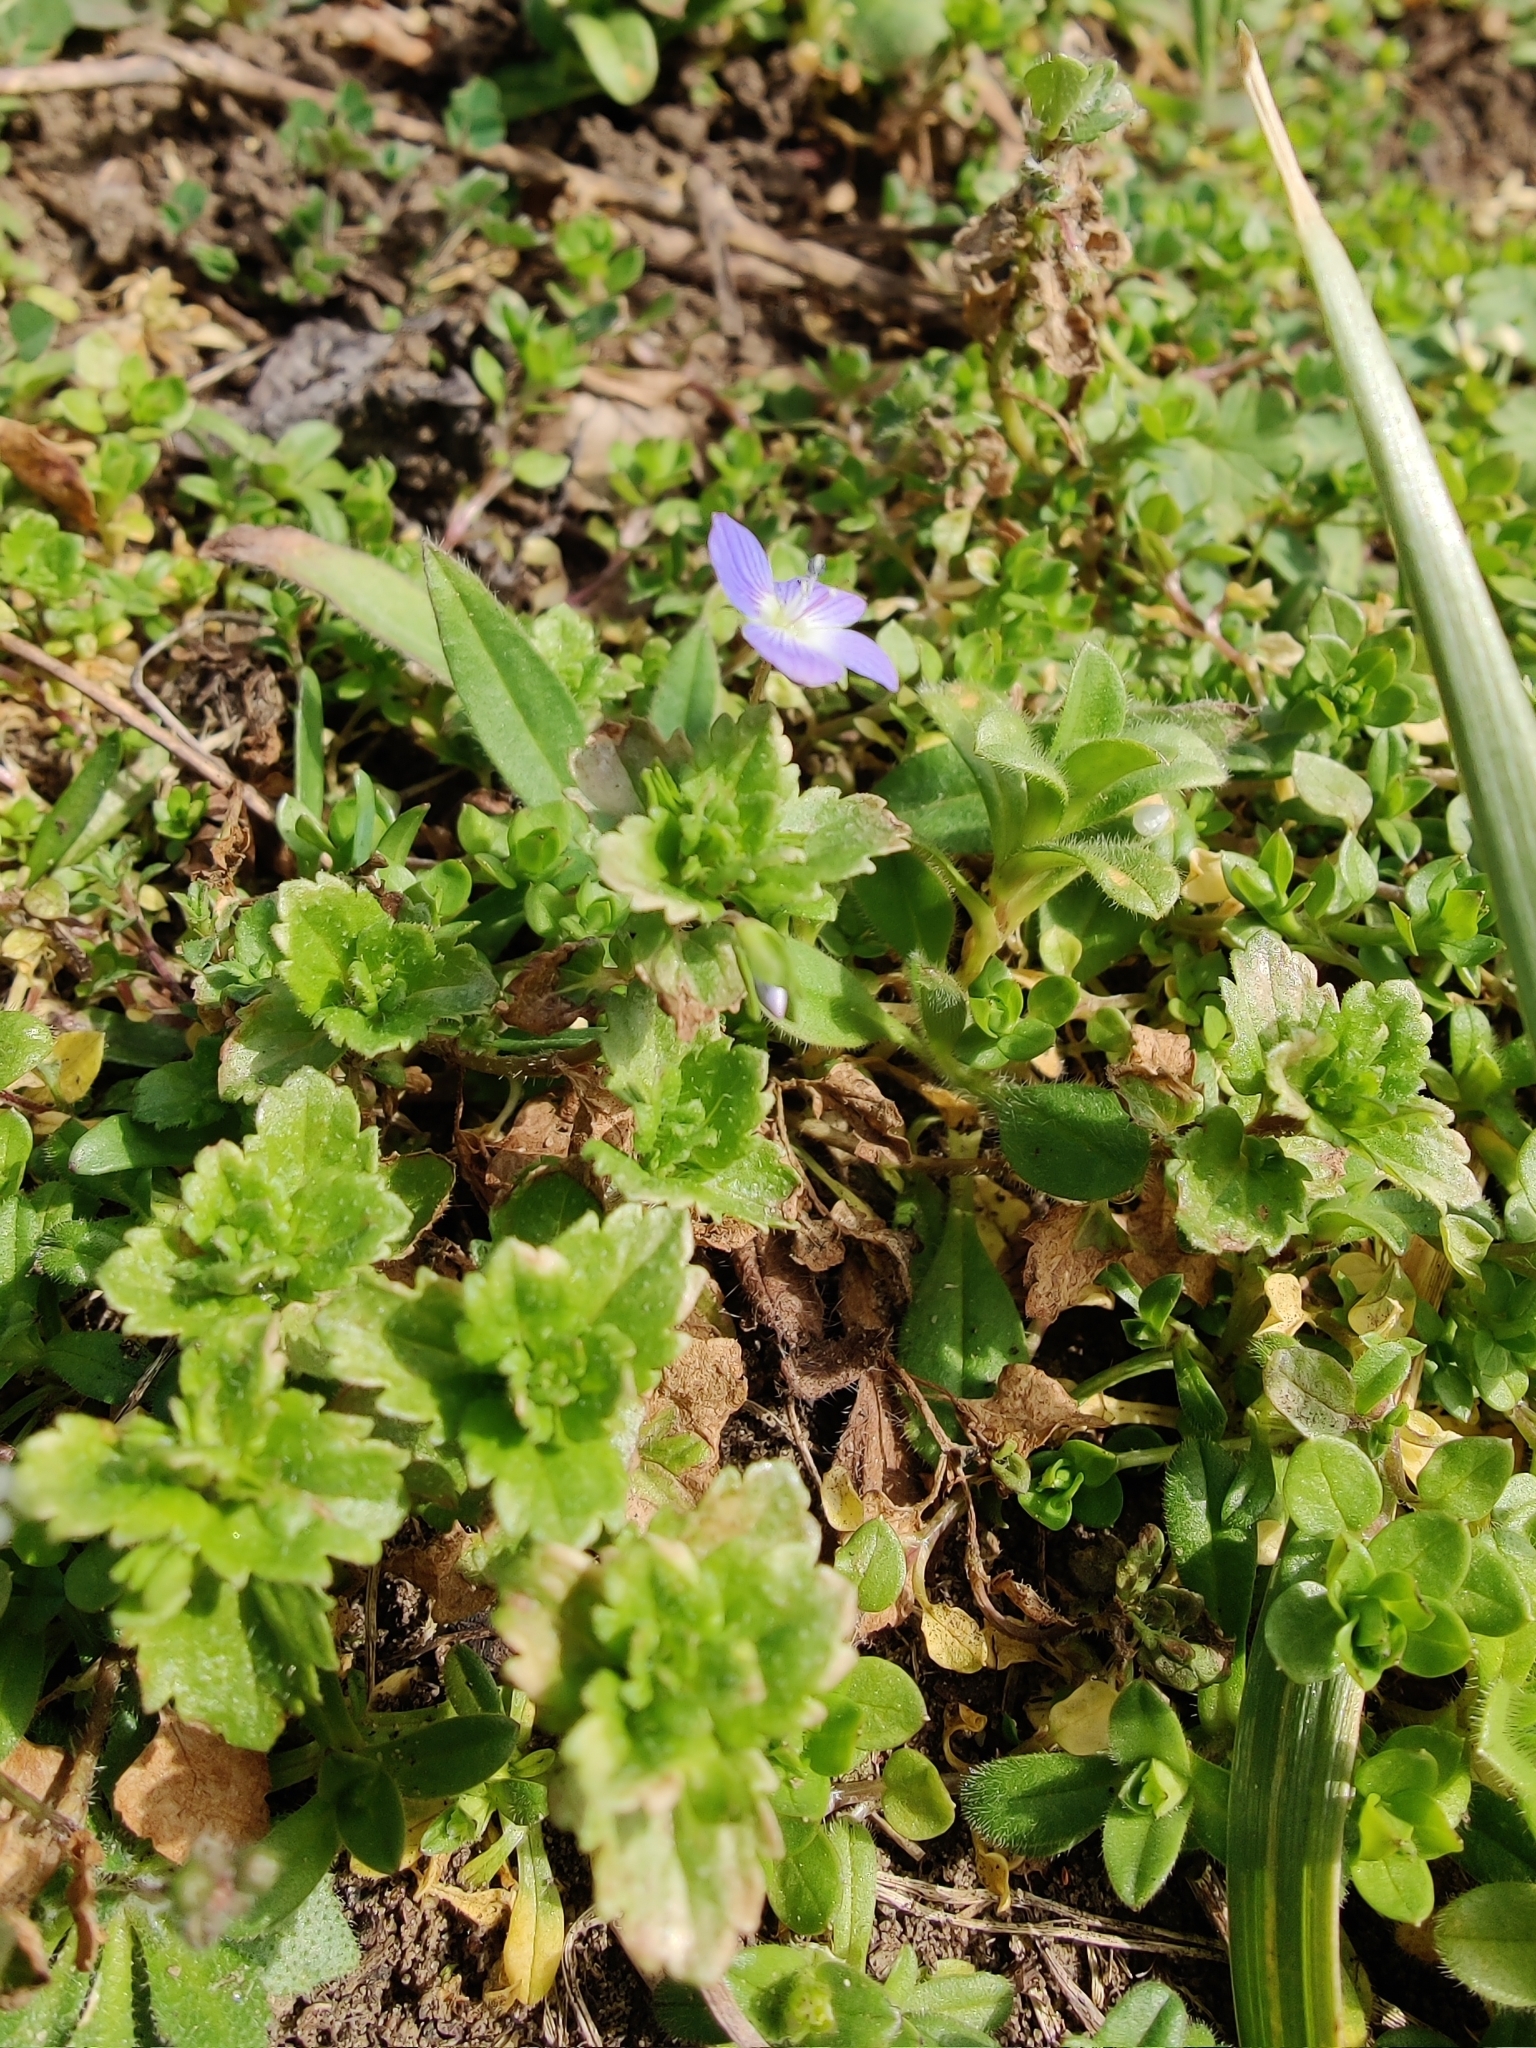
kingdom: Plantae
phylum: Tracheophyta
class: Magnoliopsida
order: Lamiales
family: Plantaginaceae
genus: Veronica
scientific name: Veronica persica
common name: Common field-speedwell
